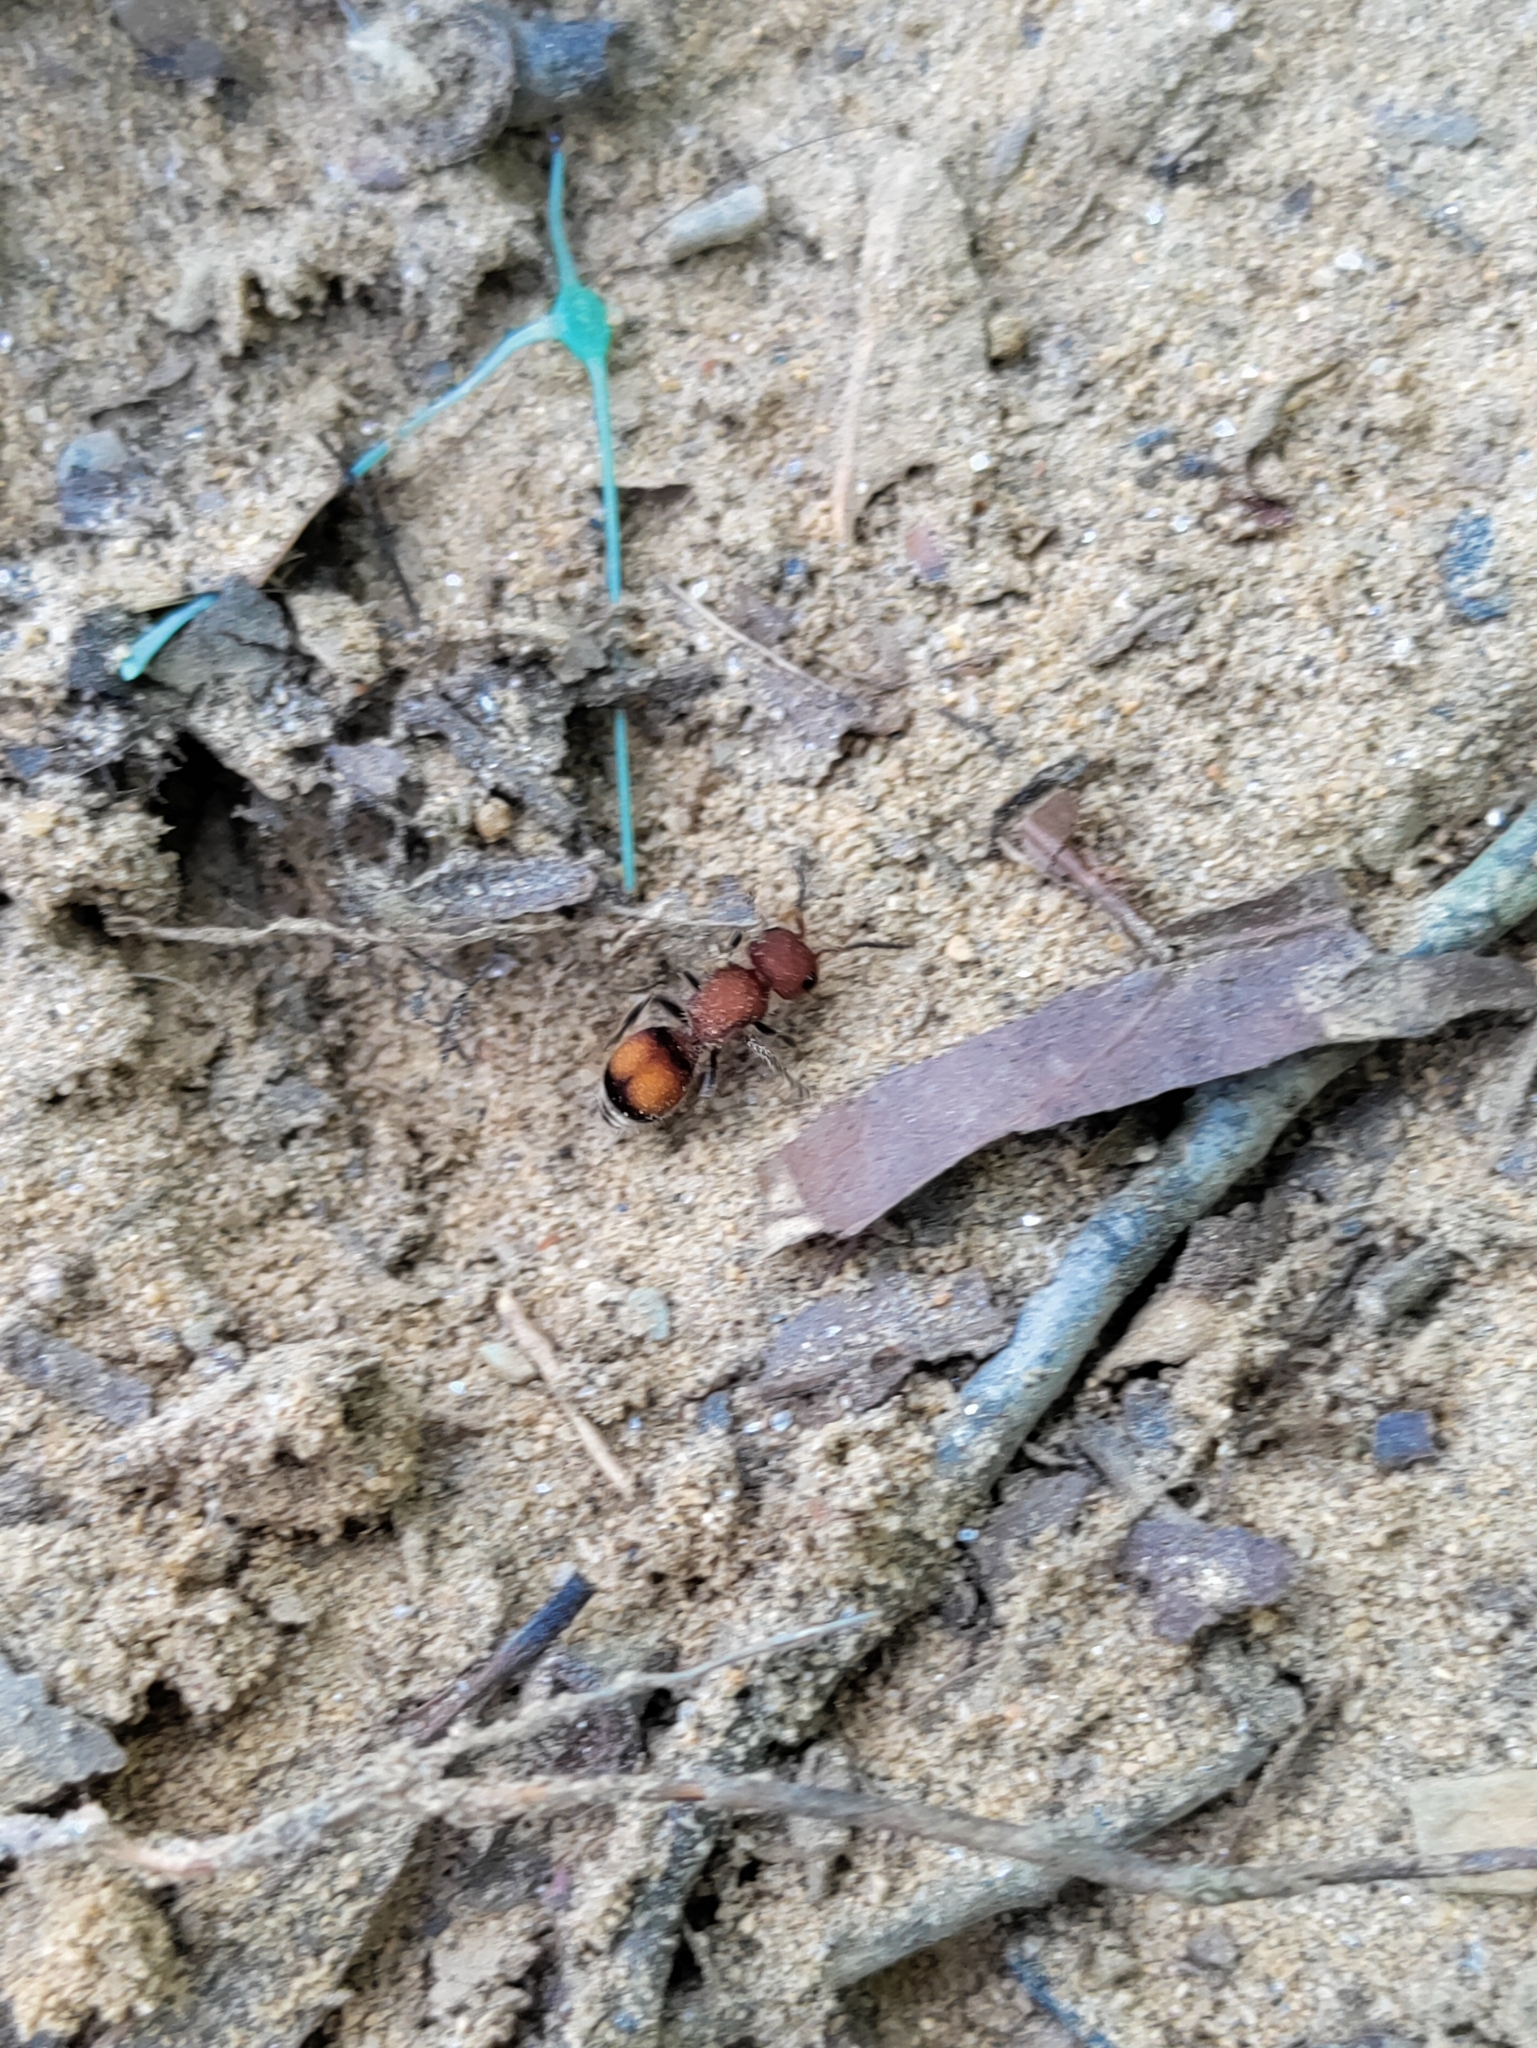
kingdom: Animalia
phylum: Arthropoda
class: Insecta
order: Hymenoptera
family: Mutillidae
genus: Pseudomethoca
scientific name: Pseudomethoca
